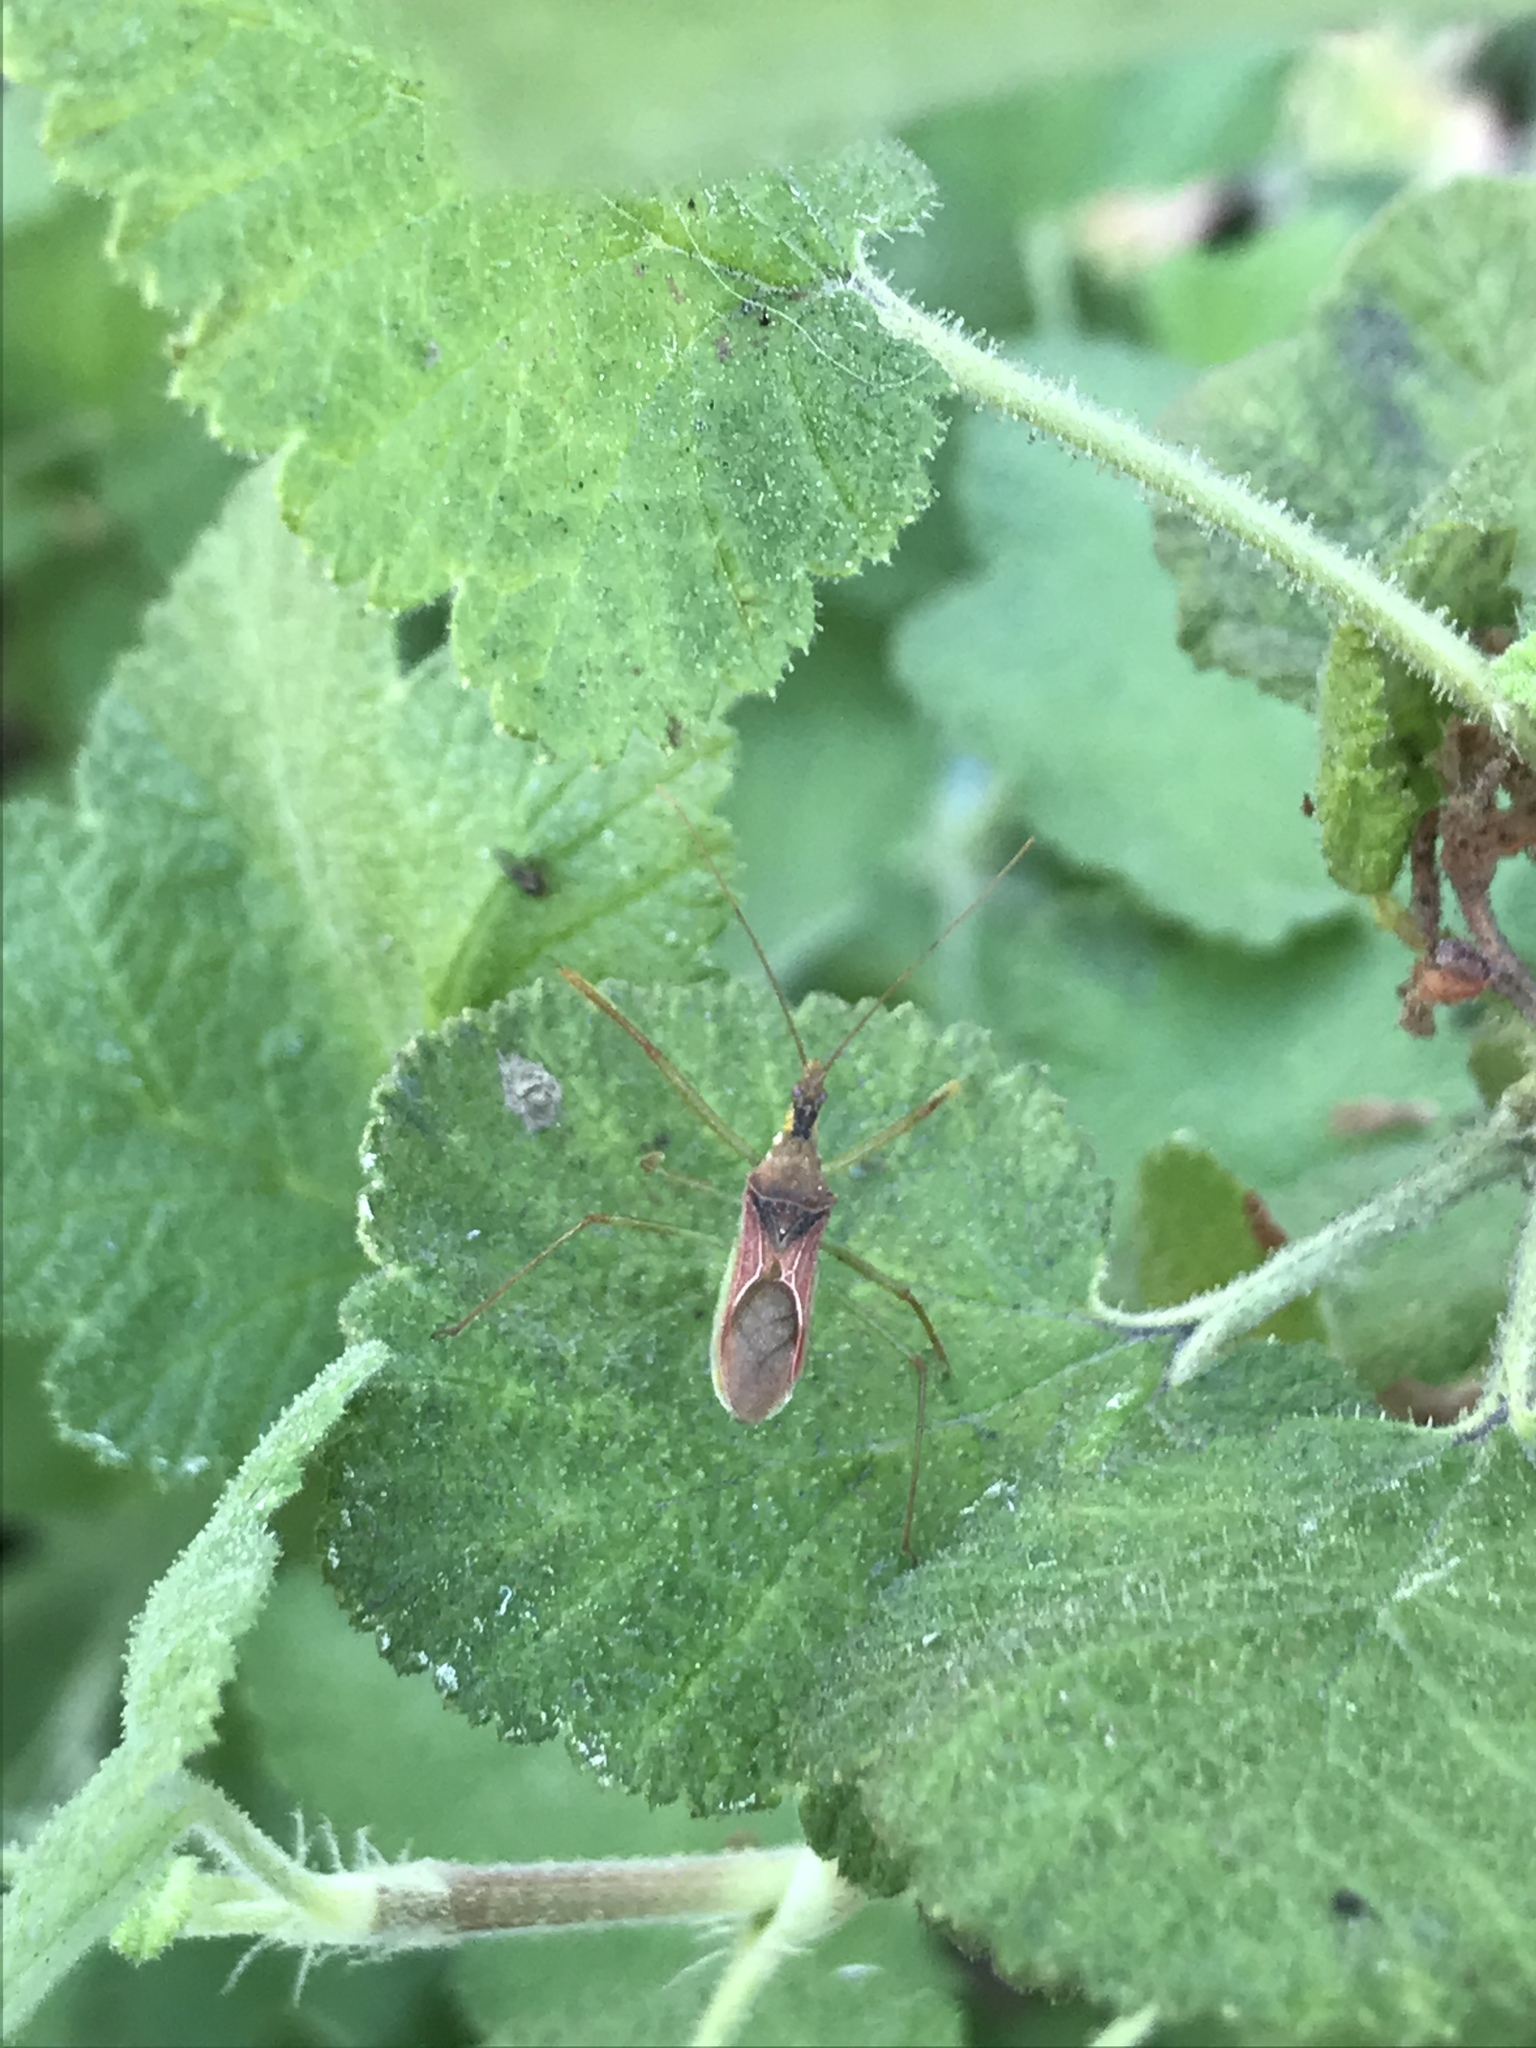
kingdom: Animalia
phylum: Arthropoda
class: Insecta
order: Hemiptera
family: Reduviidae
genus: Zelus
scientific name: Zelus renardii
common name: Assassin bug
